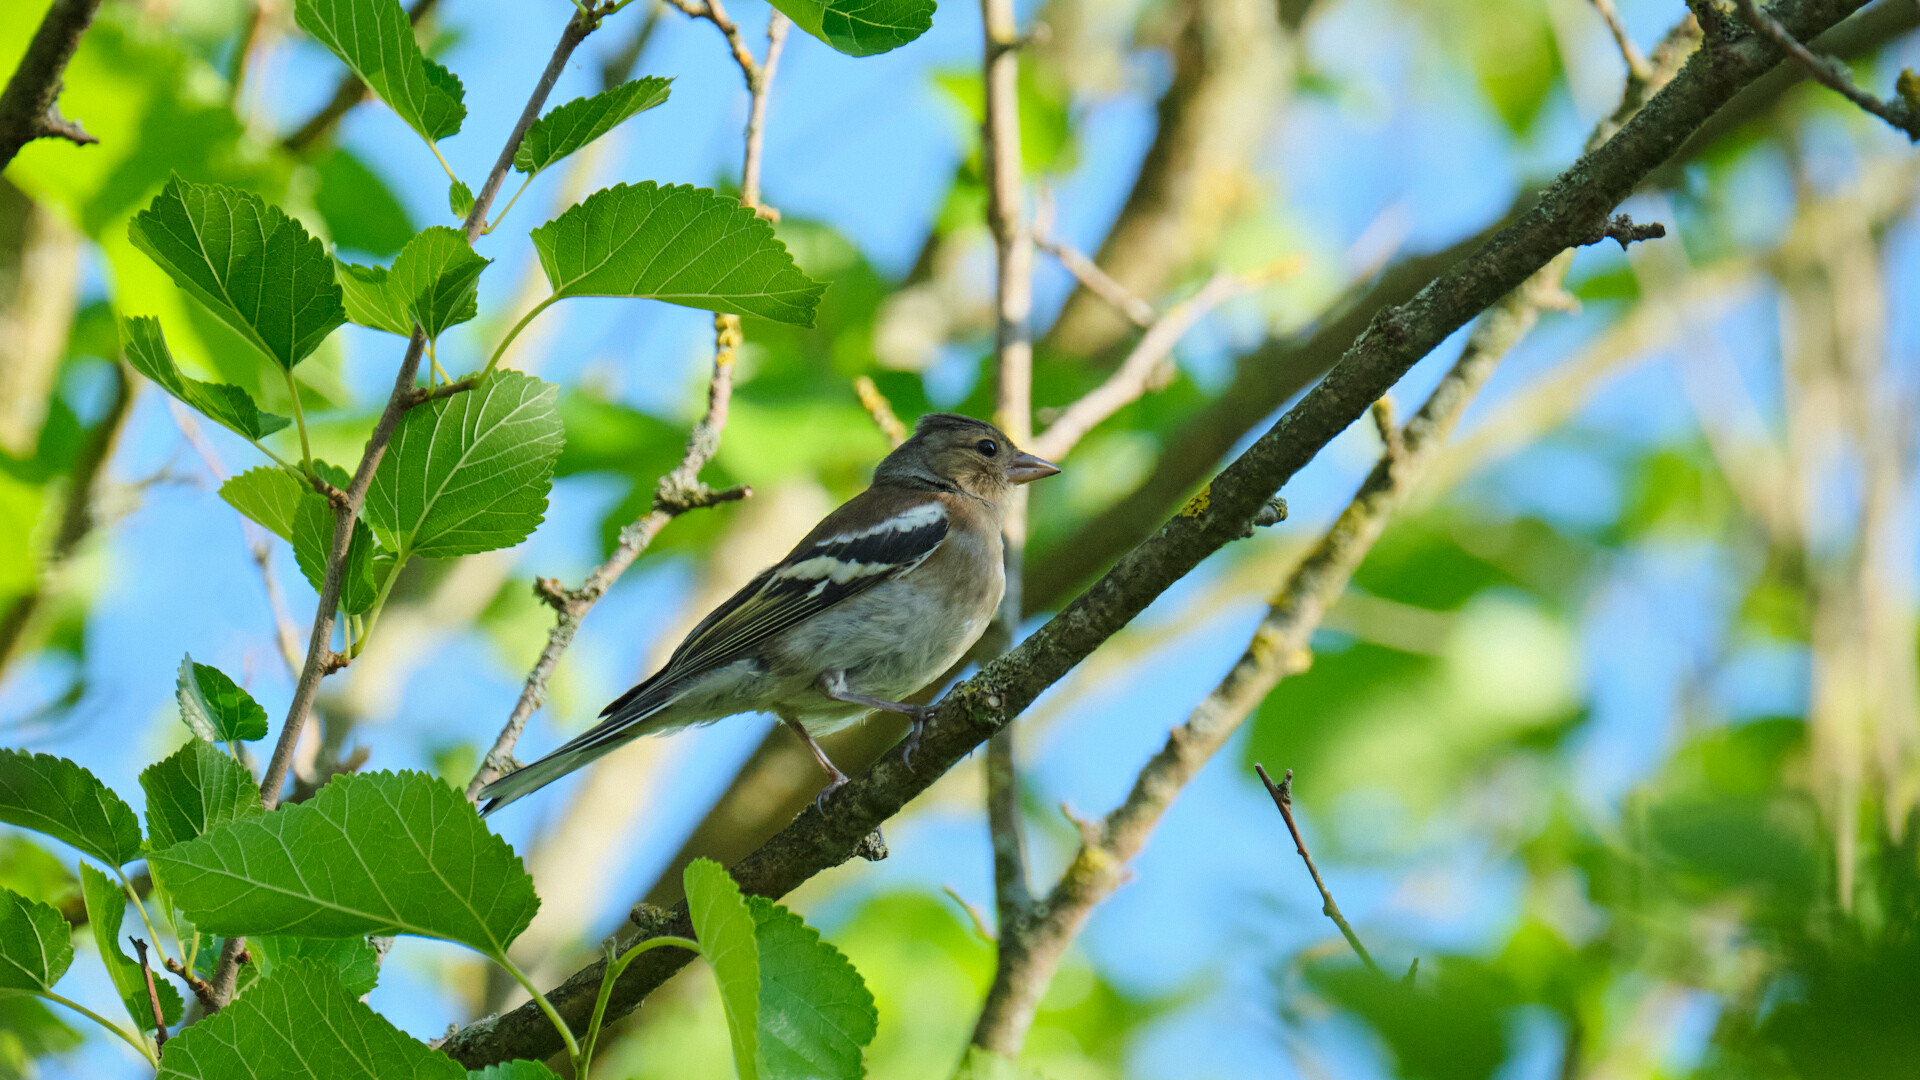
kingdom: Animalia
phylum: Chordata
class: Aves
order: Passeriformes
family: Fringillidae
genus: Fringilla
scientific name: Fringilla coelebs
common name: Common chaffinch
